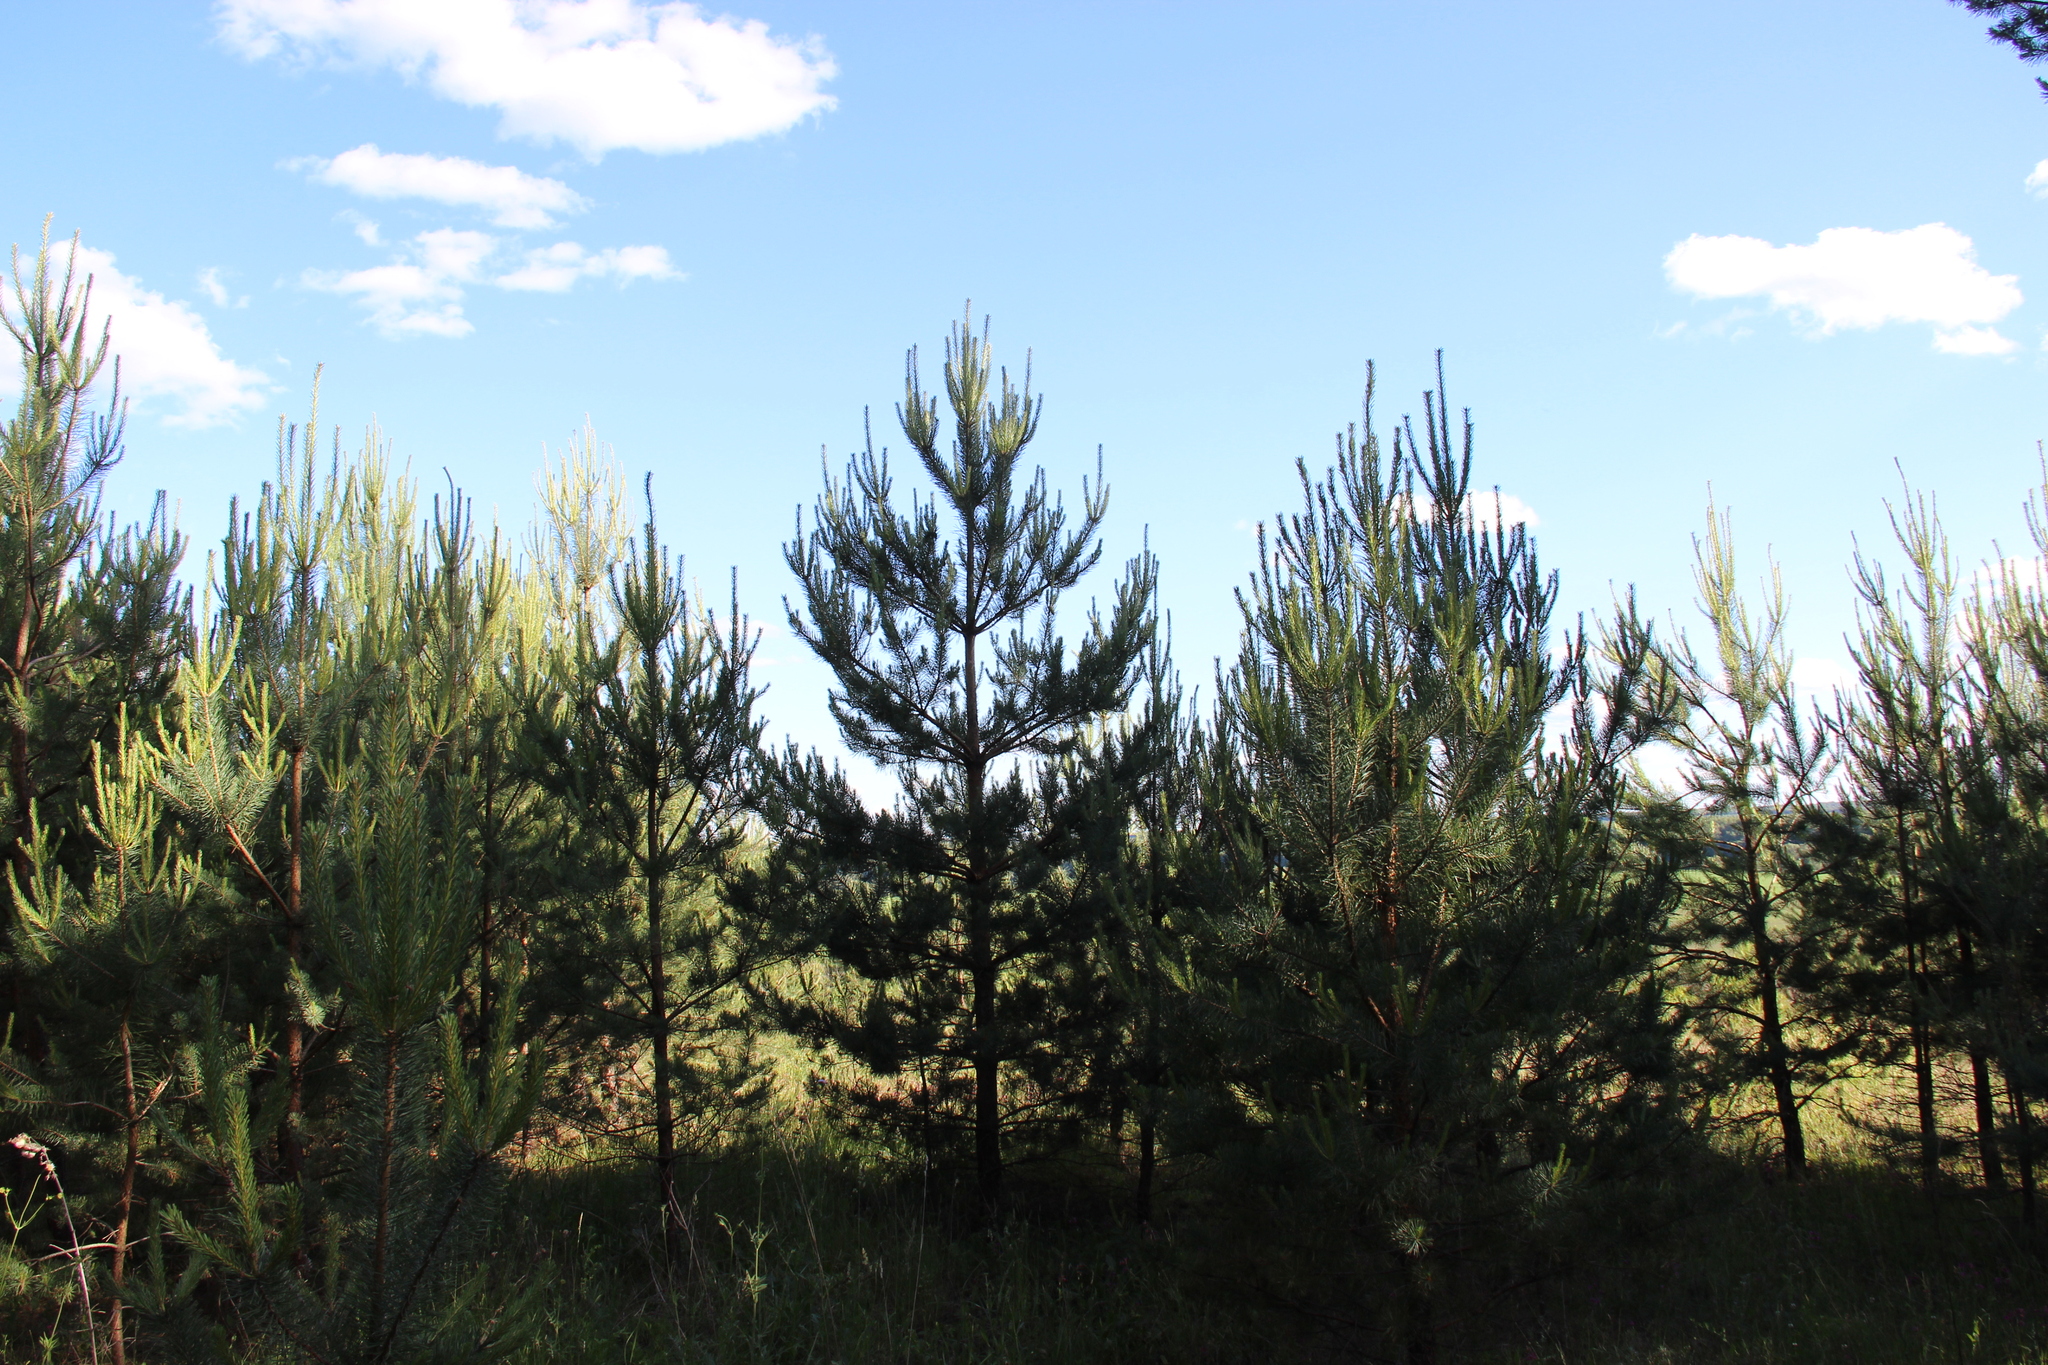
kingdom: Plantae
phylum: Tracheophyta
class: Pinopsida
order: Pinales
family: Pinaceae
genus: Pinus
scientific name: Pinus sylvestris
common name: Scots pine
